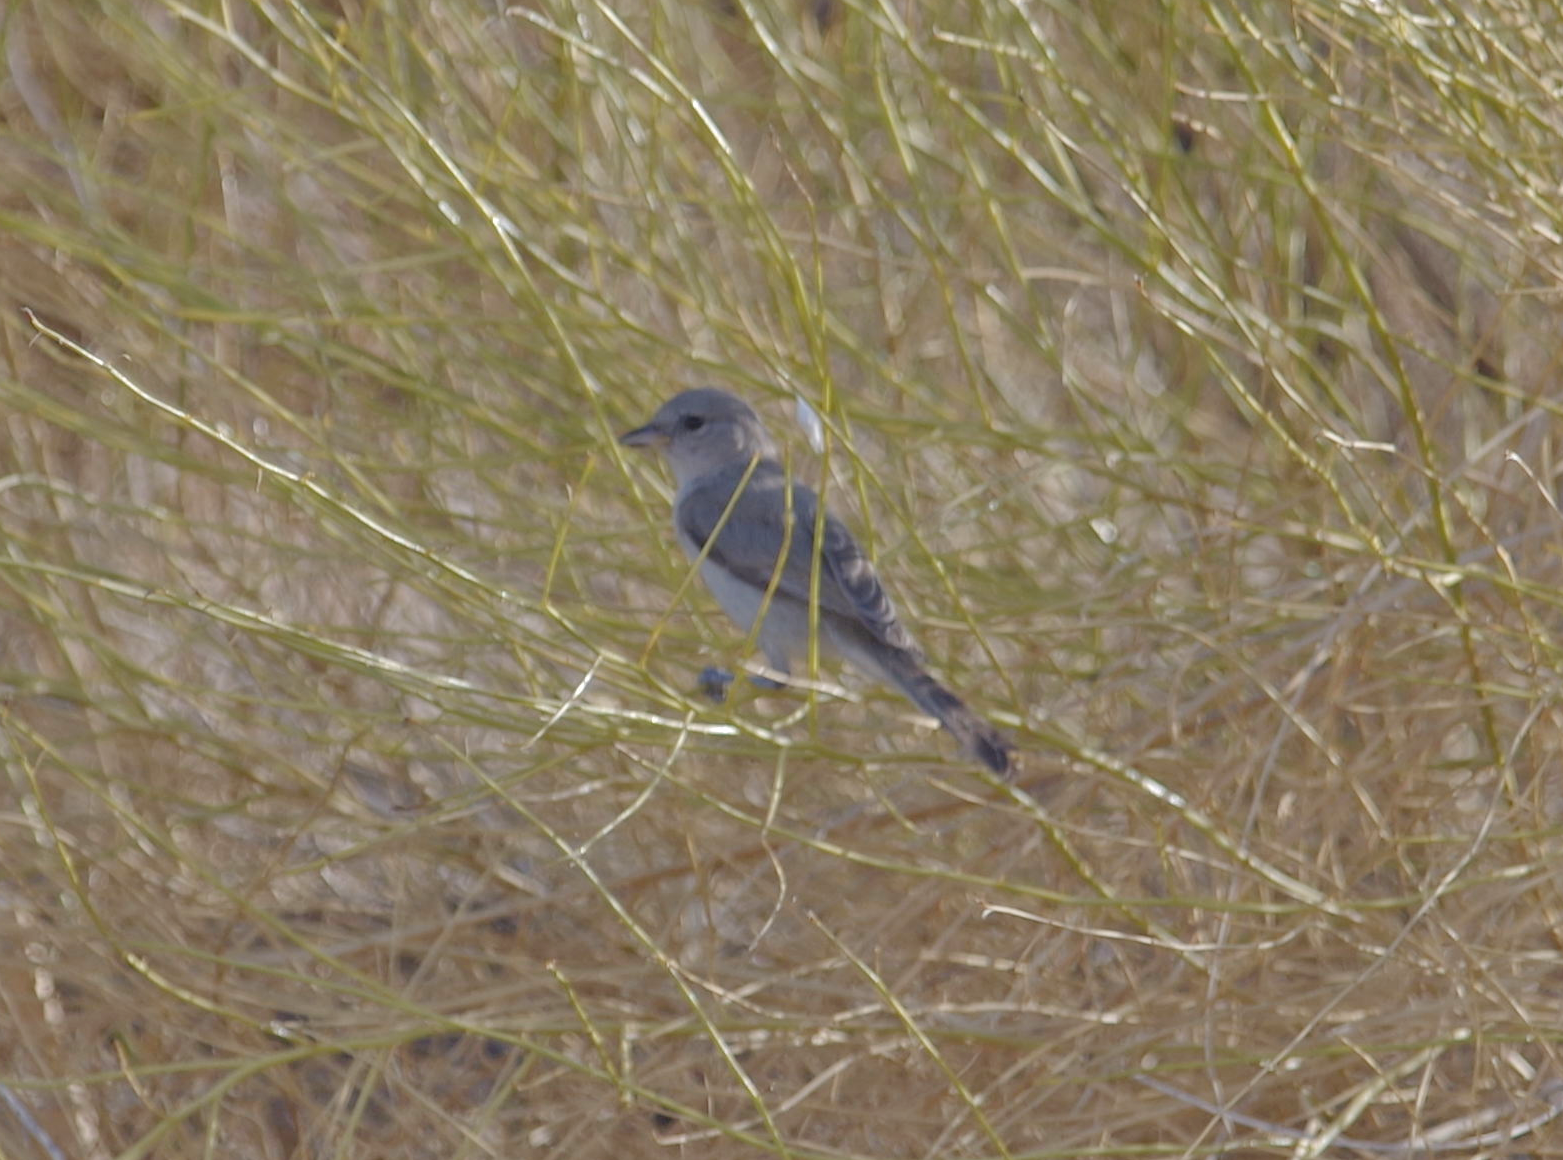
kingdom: Animalia
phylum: Chordata
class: Aves
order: Passeriformes
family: Remizidae
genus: Auriparus
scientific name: Auriparus flaviceps
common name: Verdin
